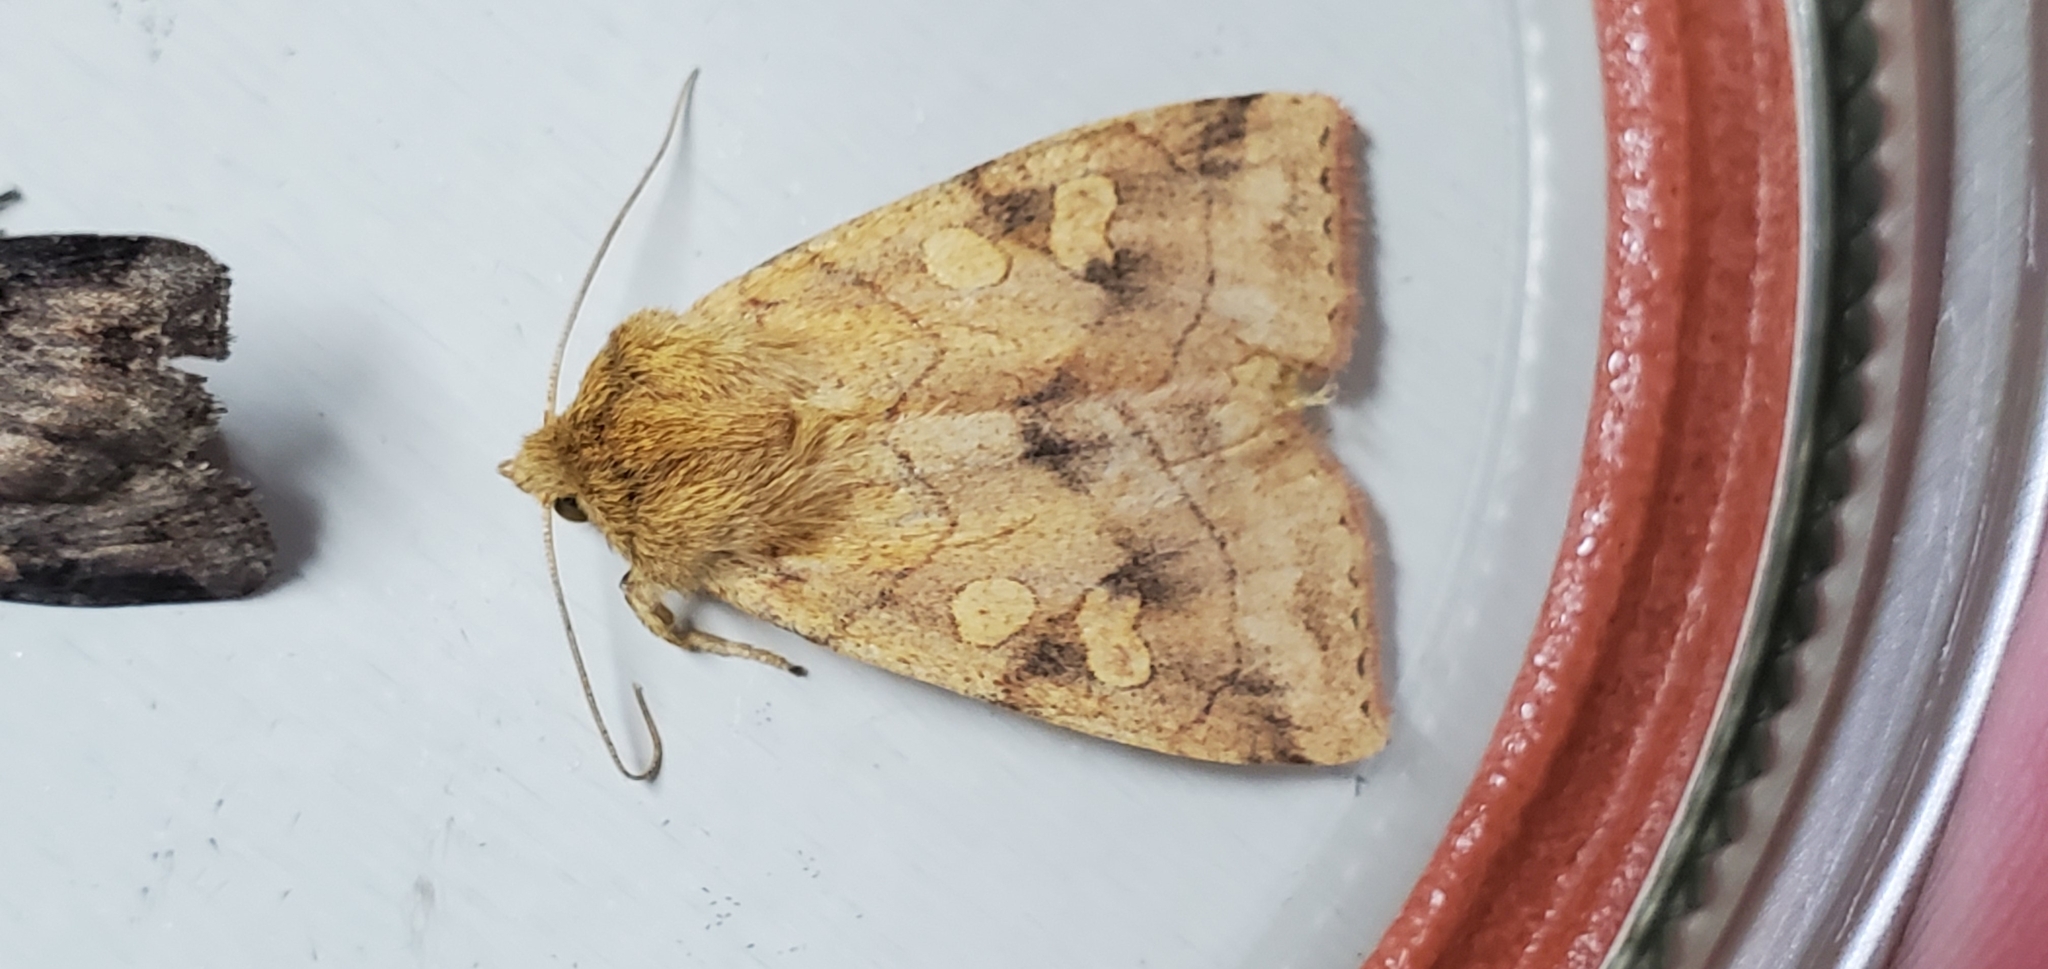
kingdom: Animalia
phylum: Arthropoda
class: Insecta
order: Lepidoptera
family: Noctuidae
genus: Enargia
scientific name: Enargia decolor
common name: Aspen twoleaf tier moth
